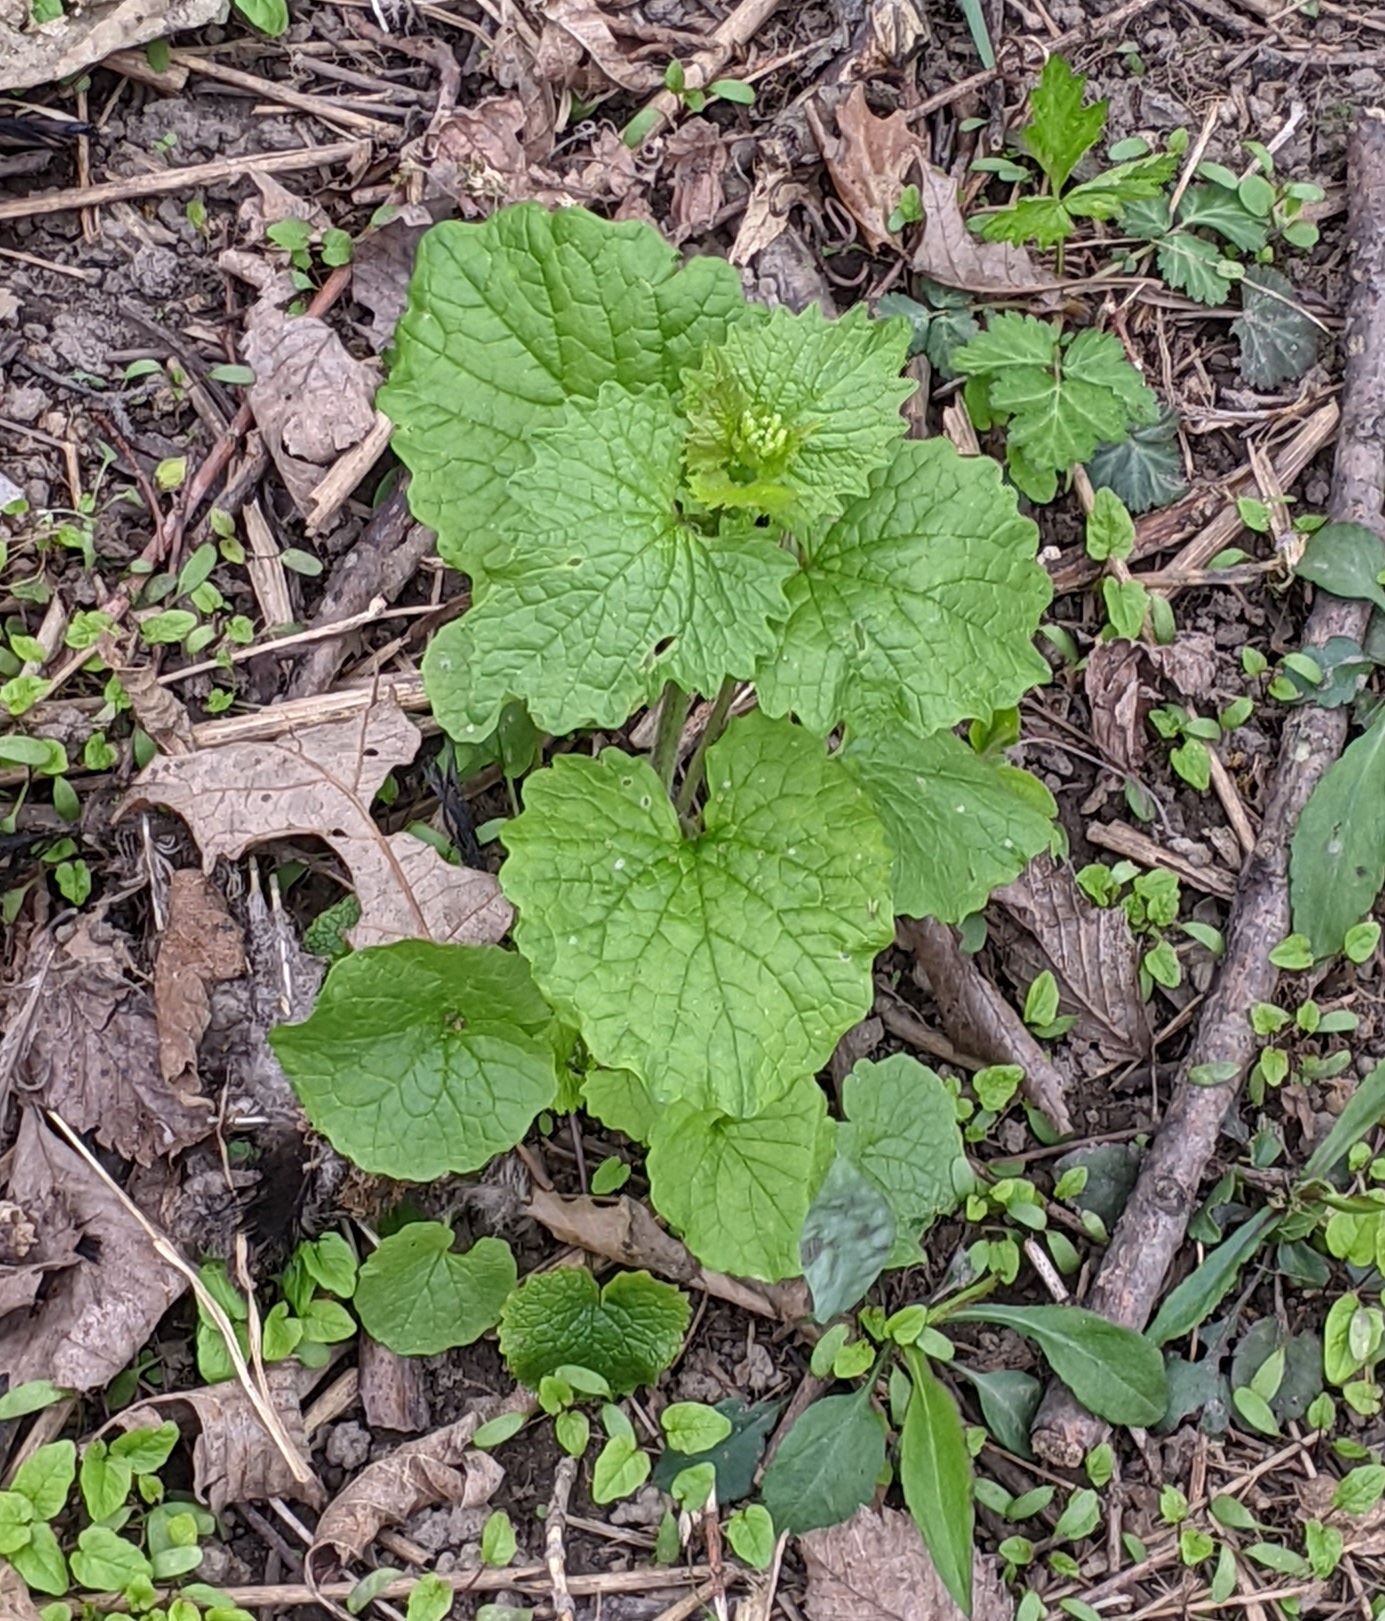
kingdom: Plantae
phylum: Tracheophyta
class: Magnoliopsida
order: Brassicales
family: Brassicaceae
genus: Alliaria
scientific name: Alliaria petiolata
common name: Garlic mustard
